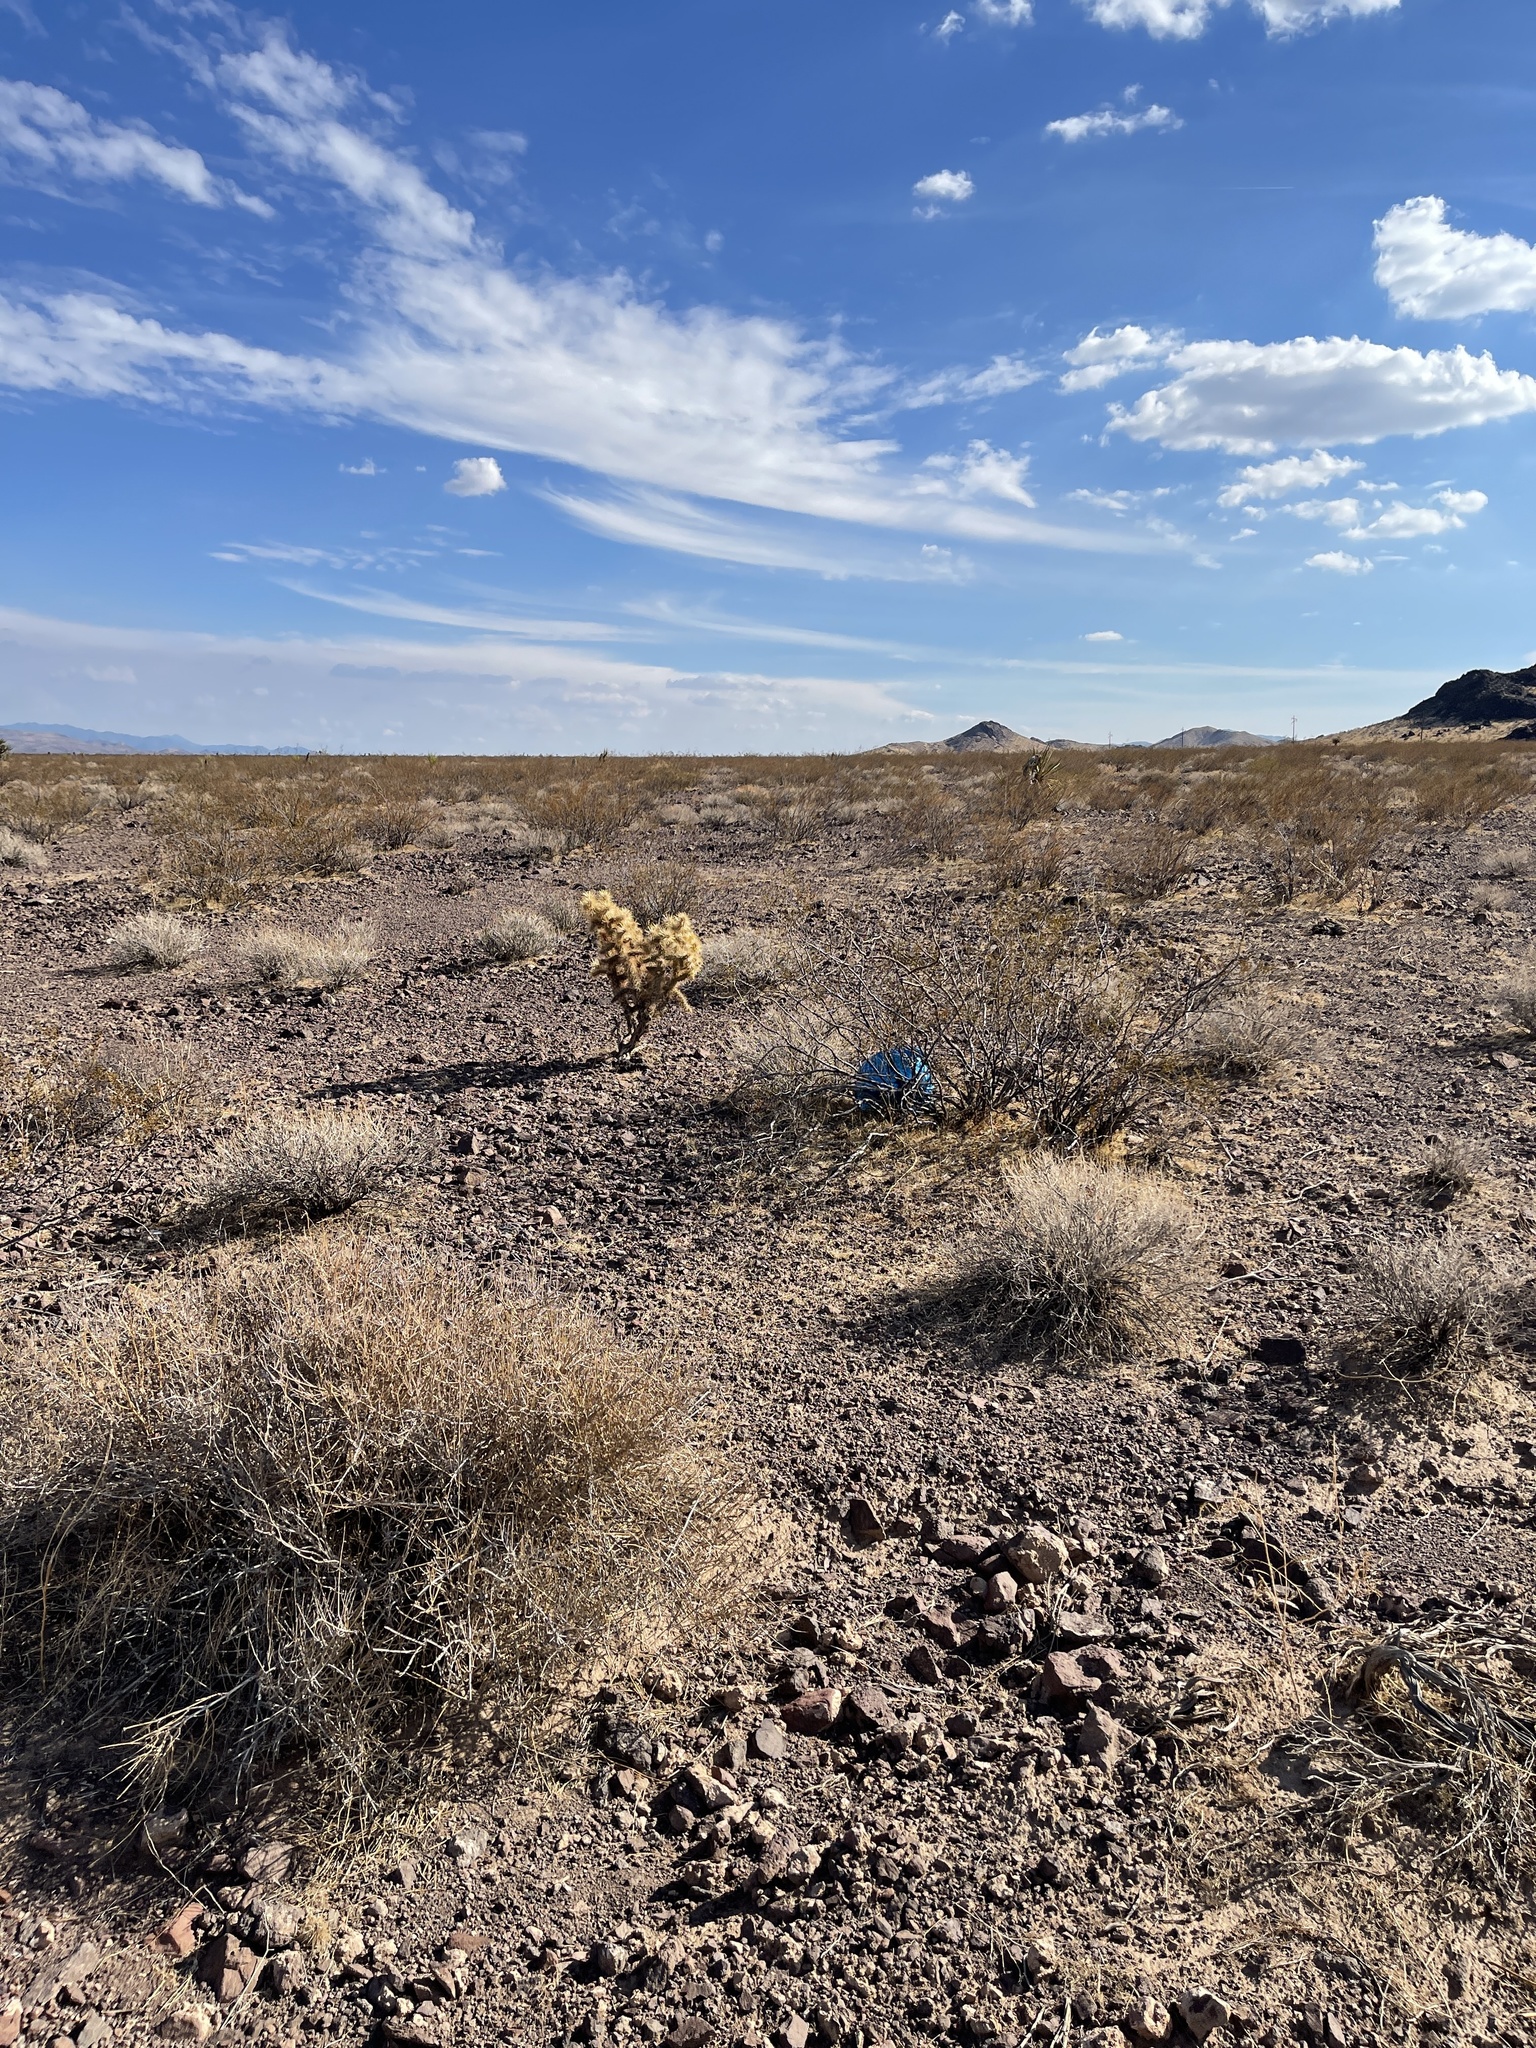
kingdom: Plantae
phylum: Tracheophyta
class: Magnoliopsida
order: Caryophyllales
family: Cactaceae
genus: Cylindropuntia
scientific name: Cylindropuntia echinocarpa
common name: Ground cholla
